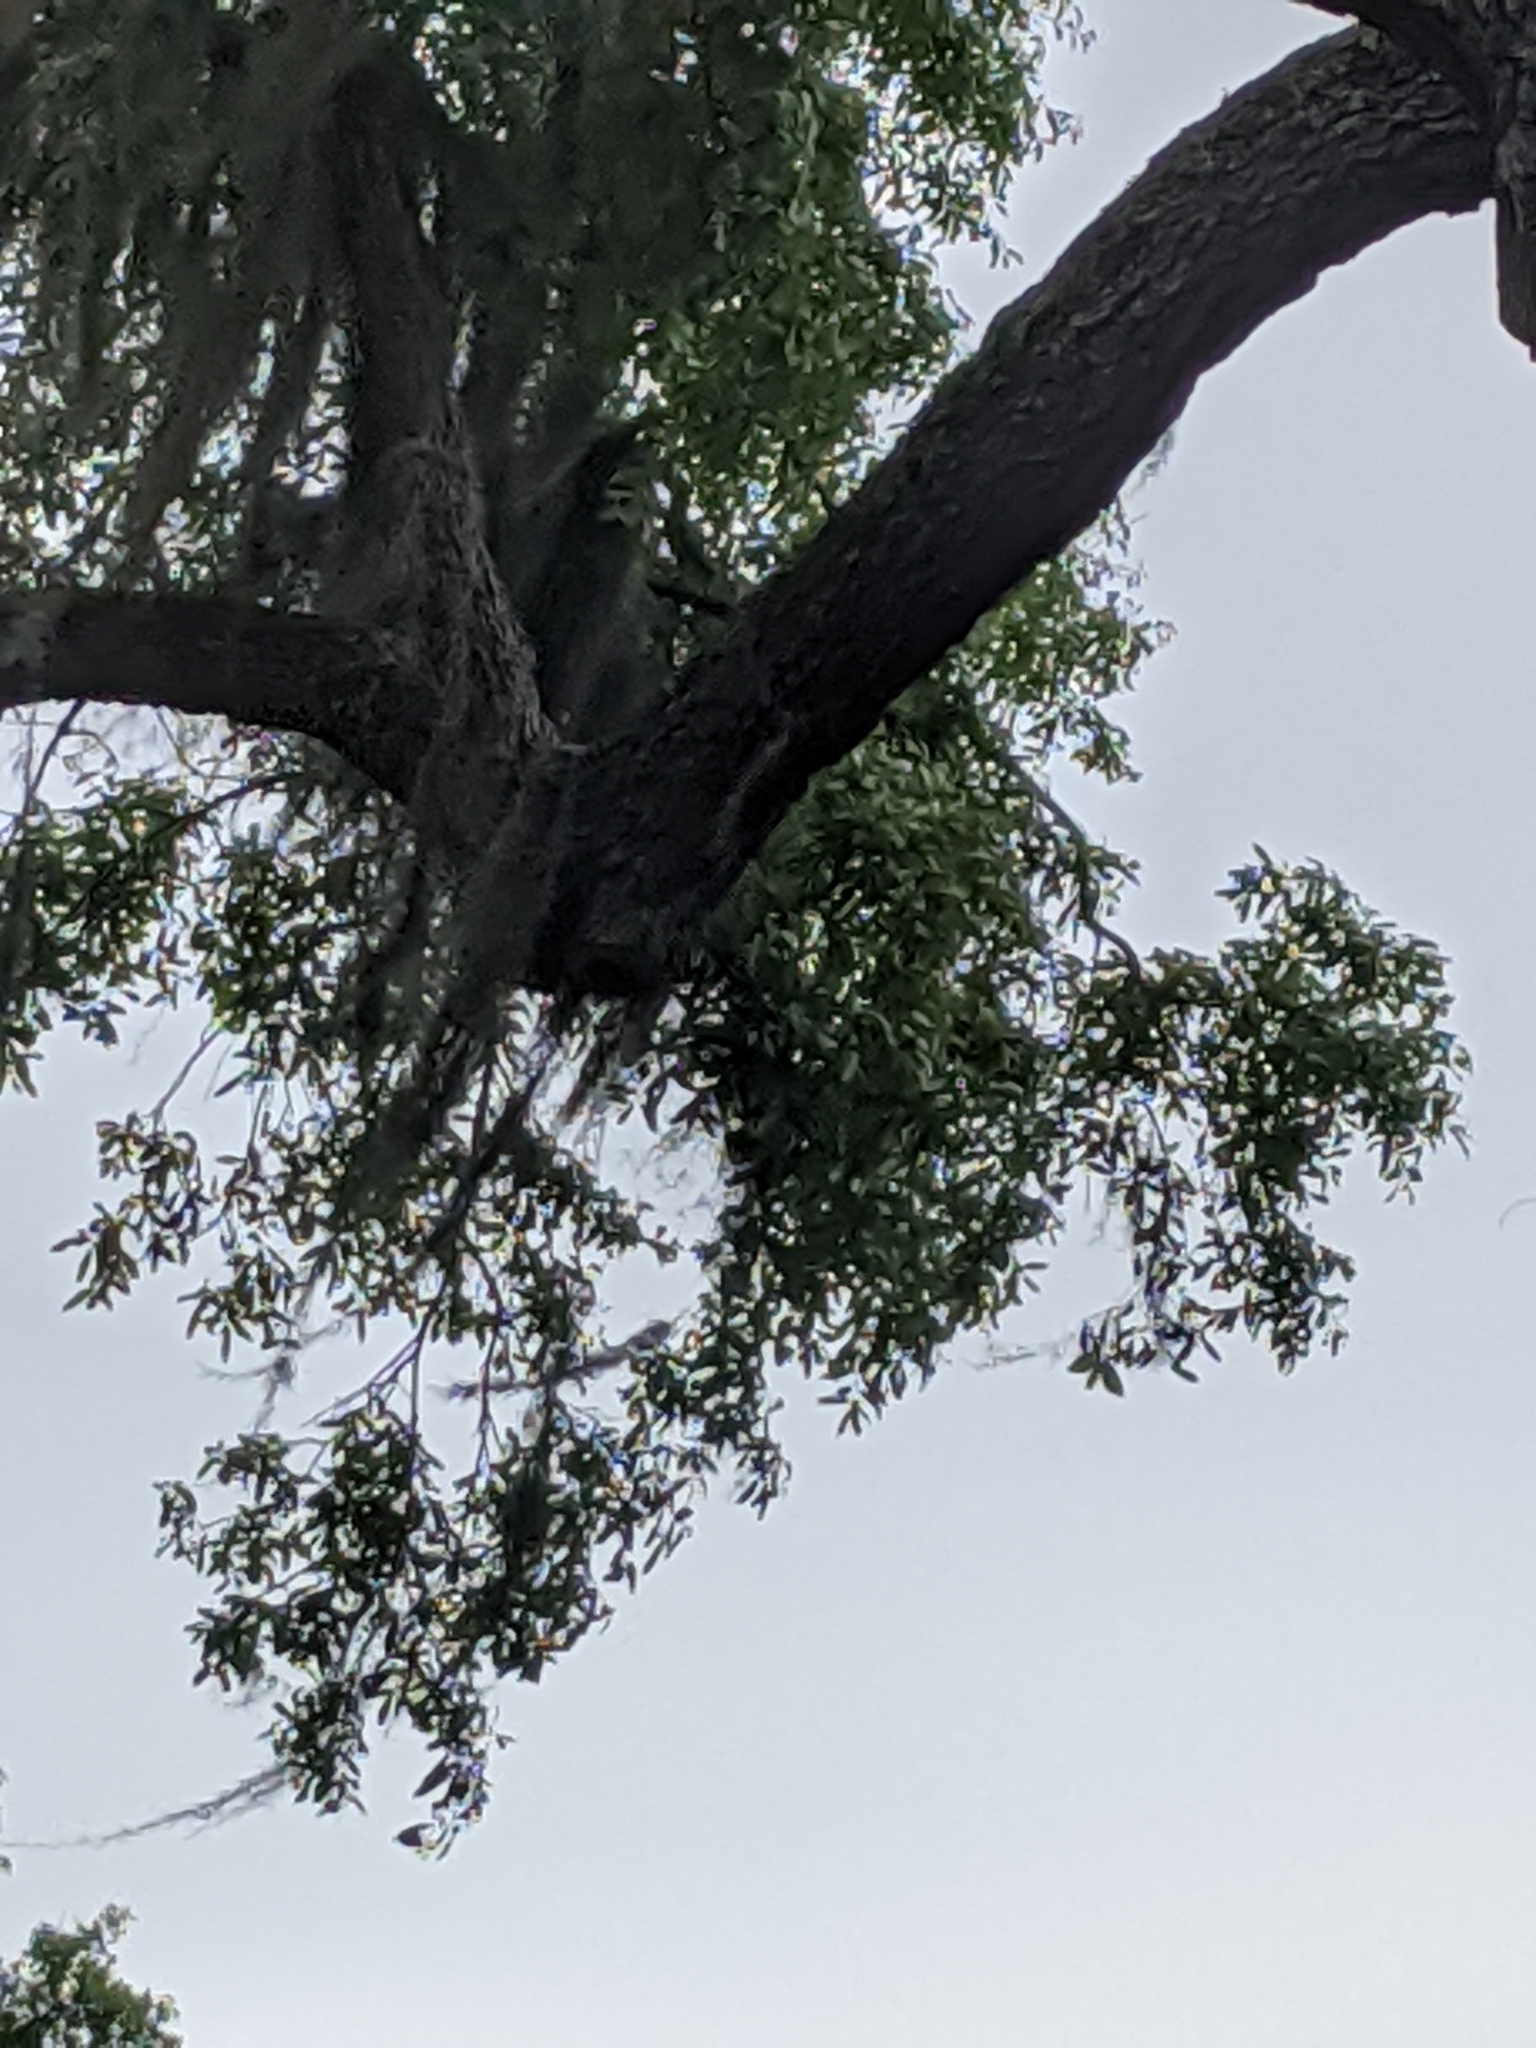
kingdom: Plantae
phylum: Tracheophyta
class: Magnoliopsida
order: Fagales
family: Fagaceae
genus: Quercus
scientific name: Quercus virginiana
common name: Southern live oak
